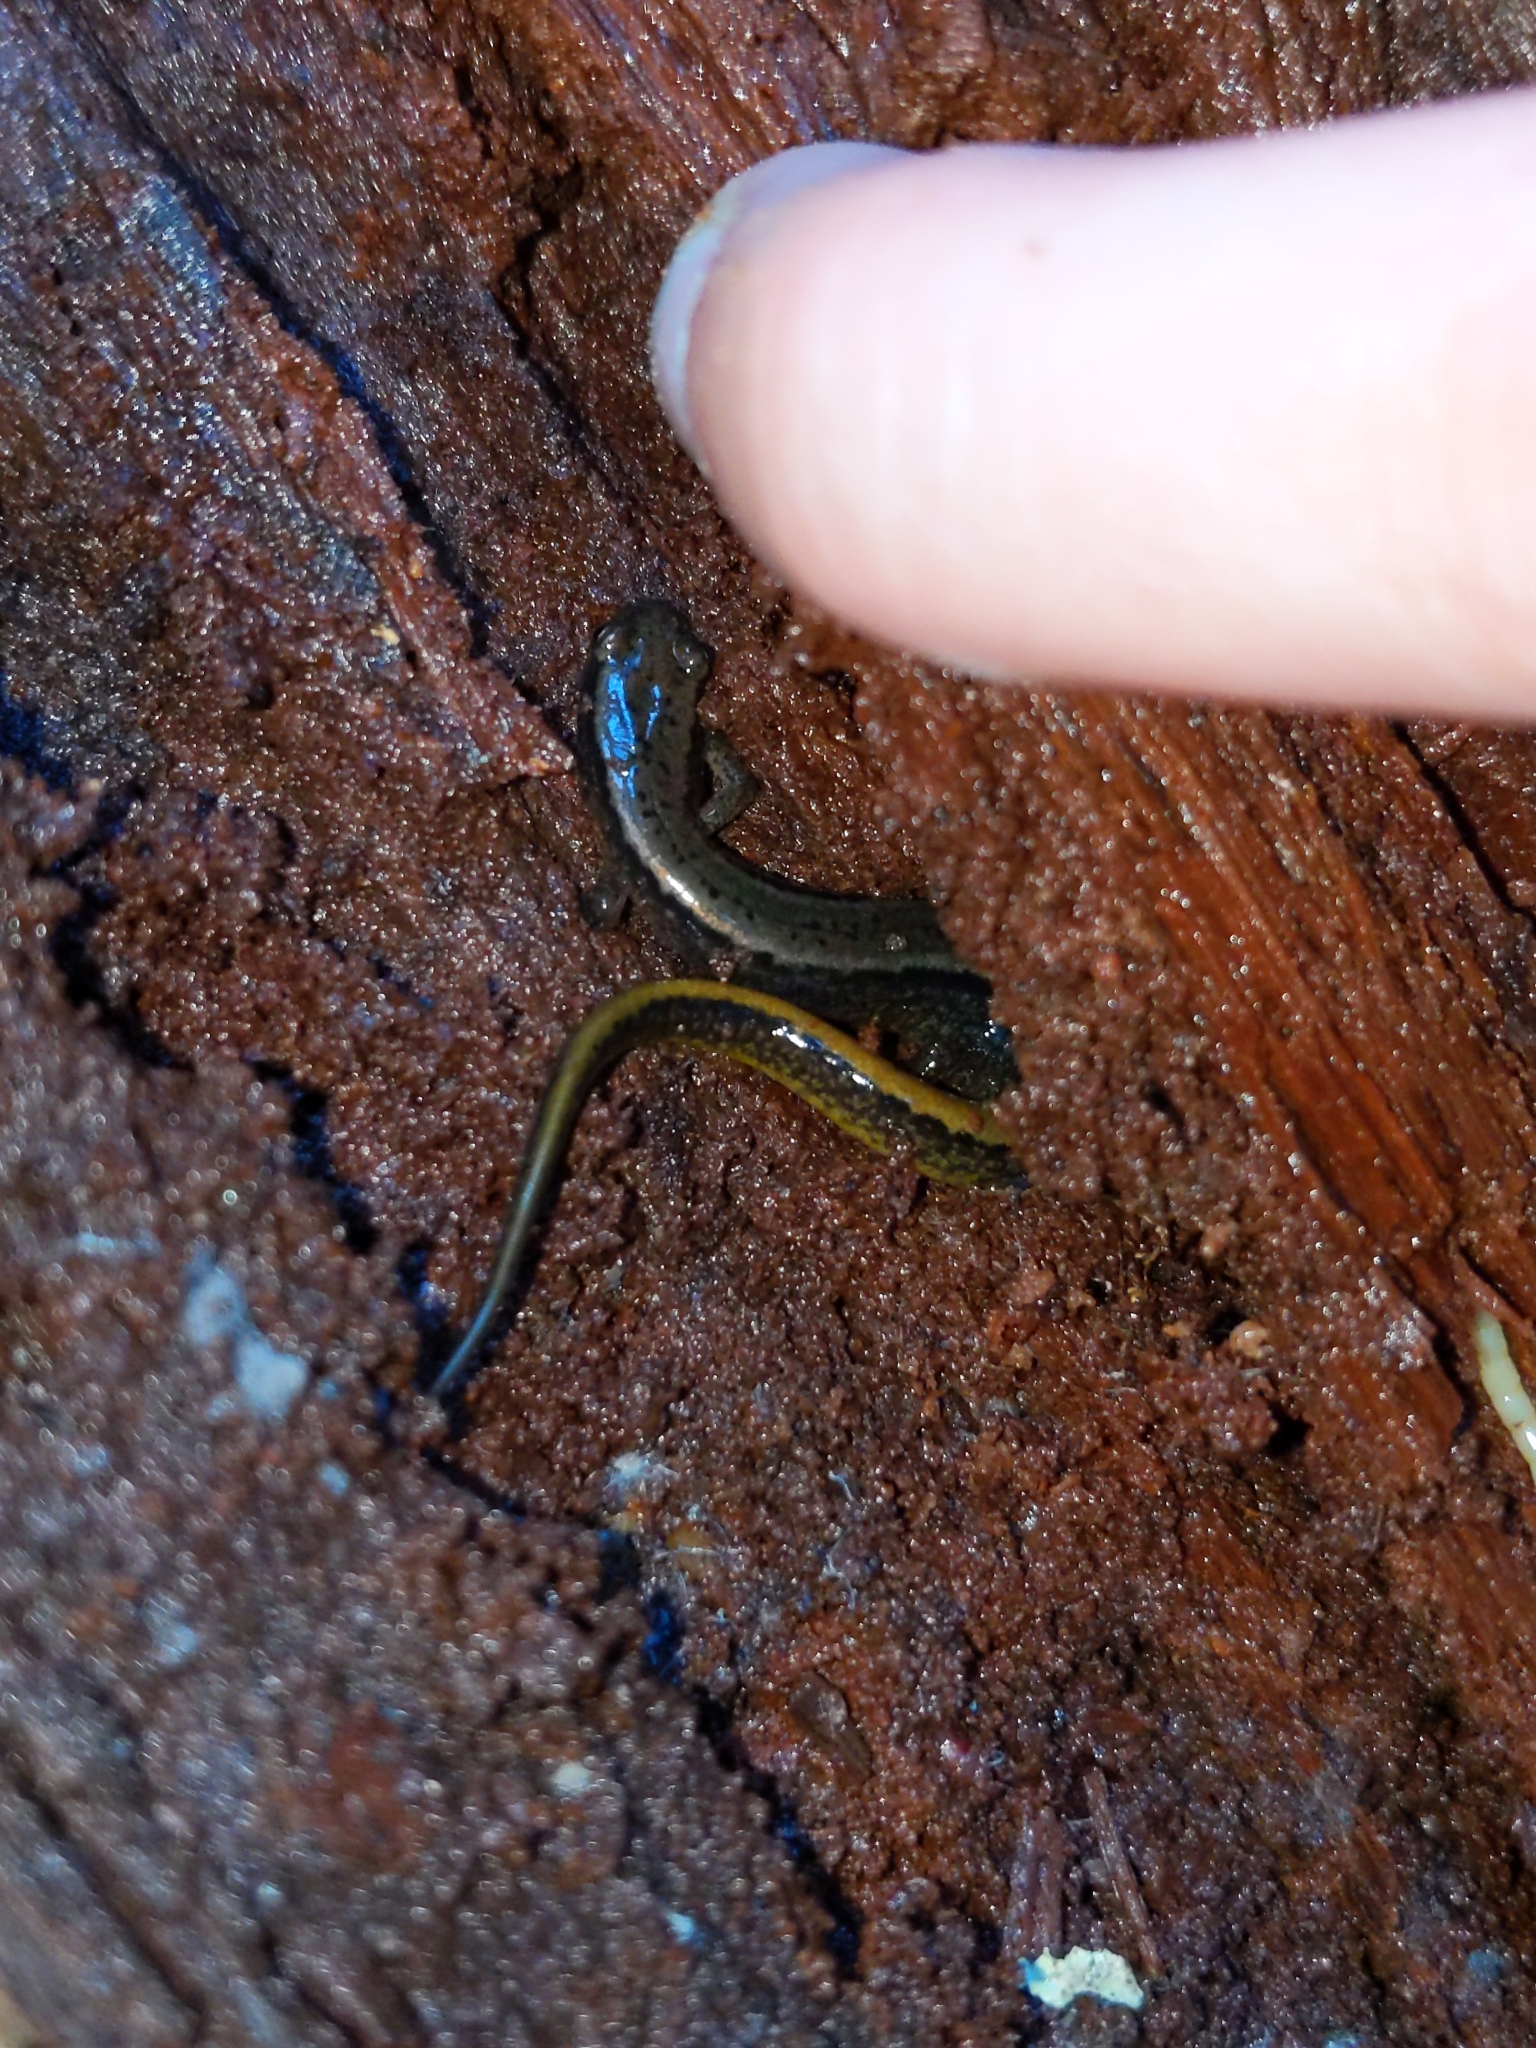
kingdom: Animalia
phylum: Chordata
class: Amphibia
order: Caudata
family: Plethodontidae
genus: Eurycea
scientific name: Eurycea bislineata
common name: Northern two-lined salamander
